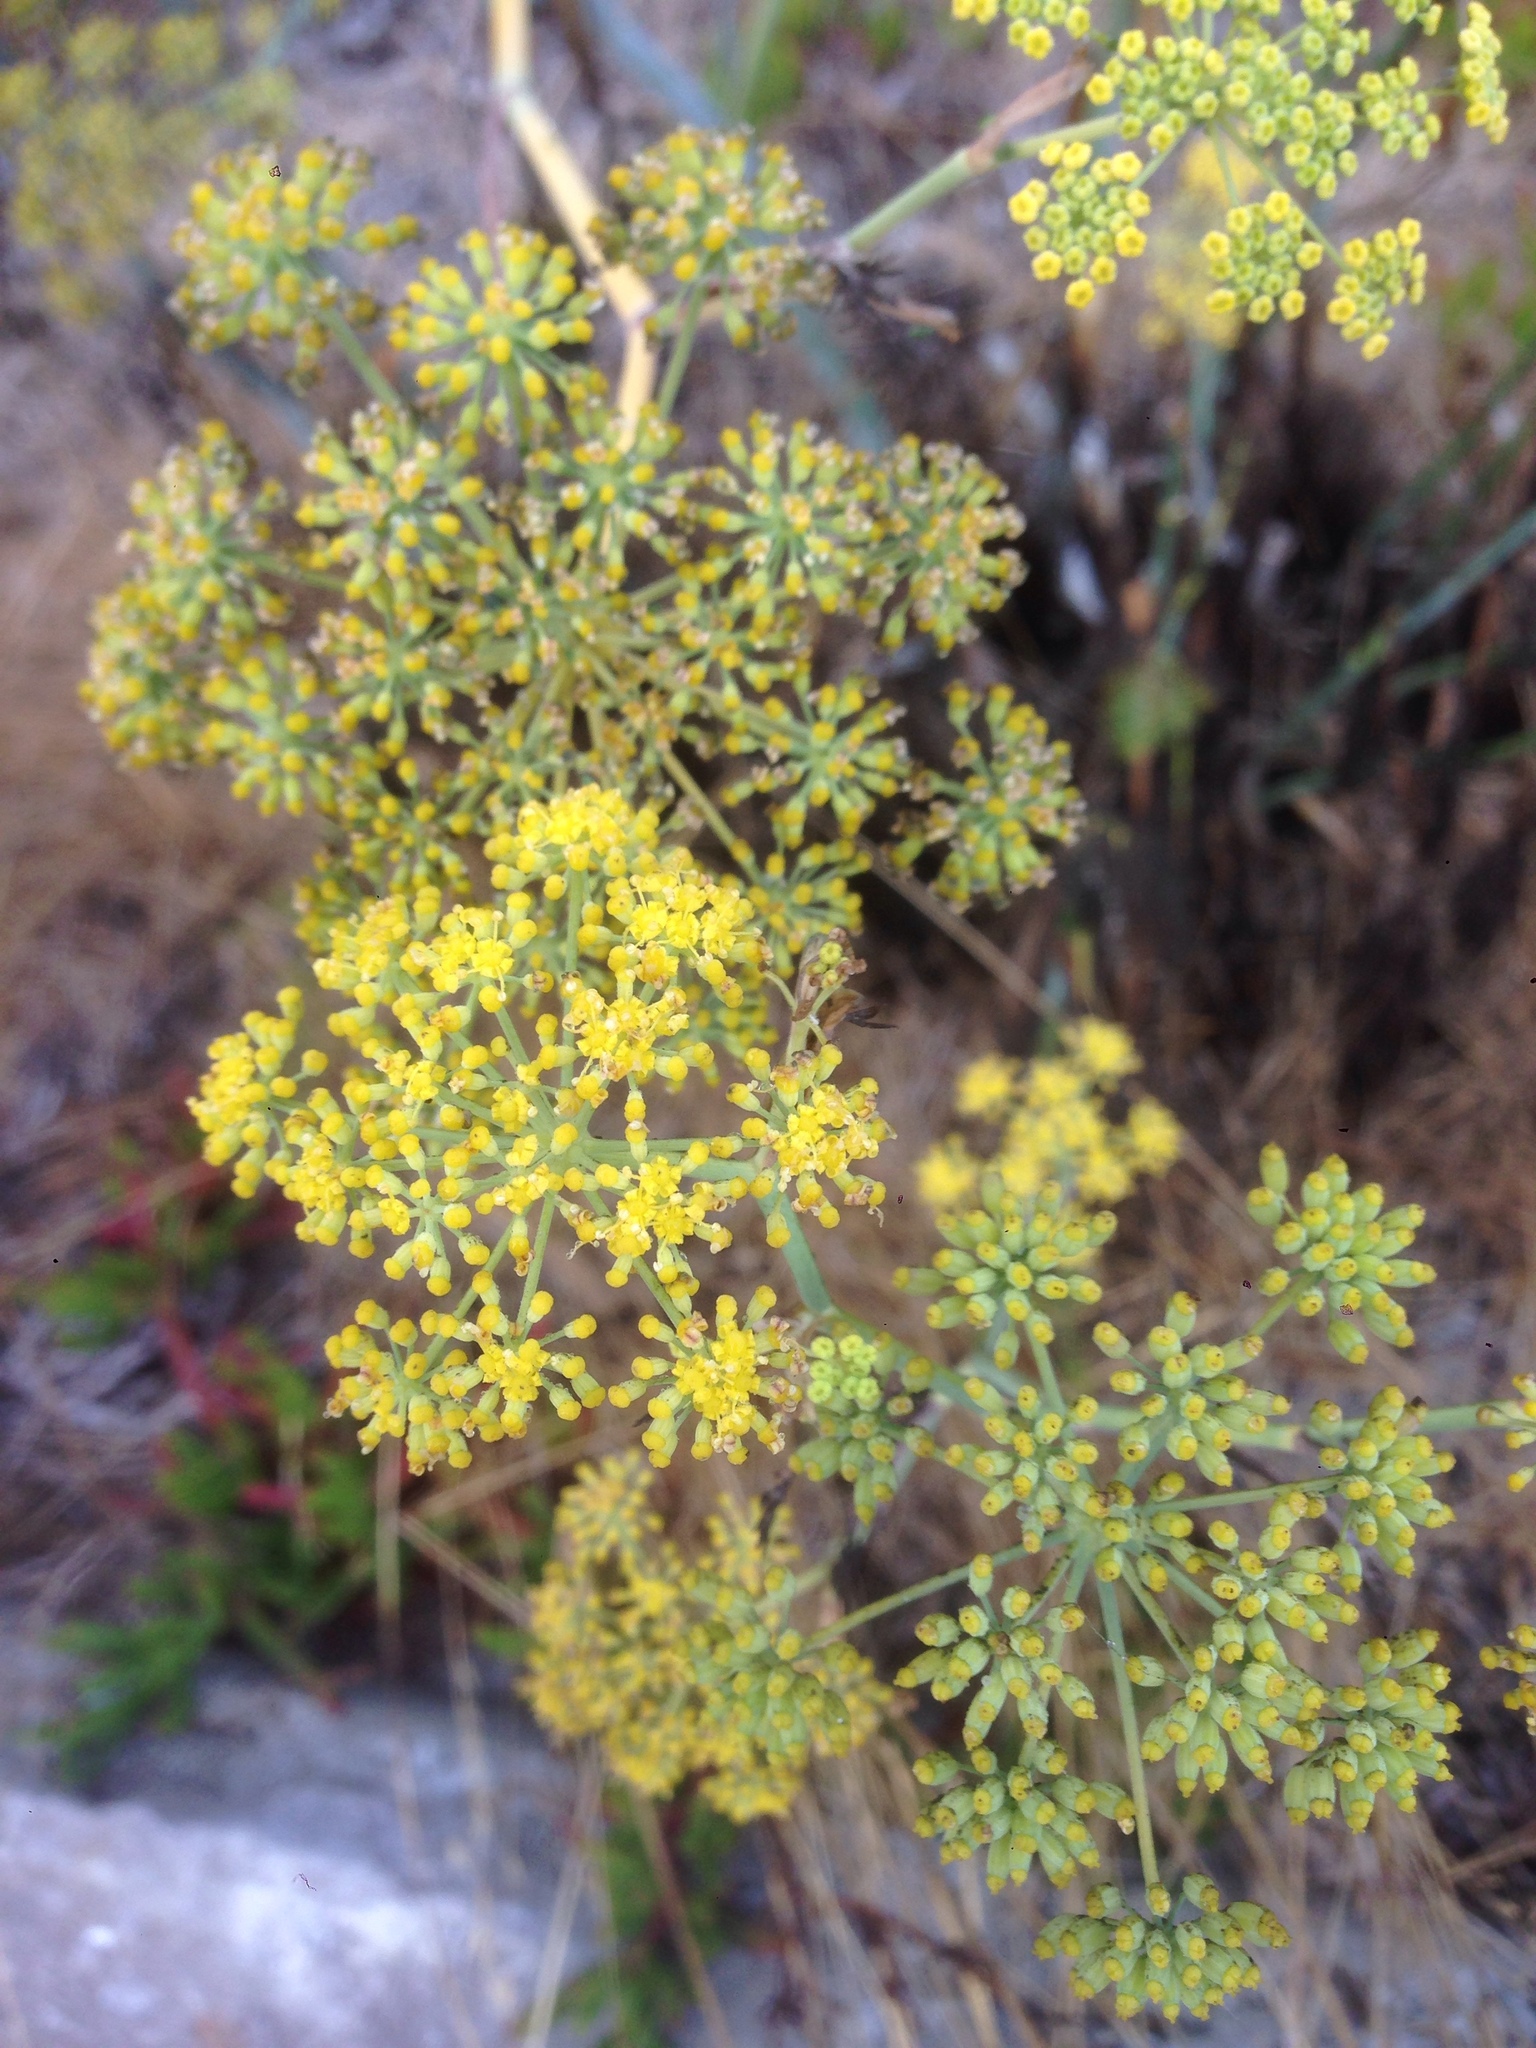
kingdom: Plantae
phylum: Tracheophyta
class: Magnoliopsida
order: Apiales
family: Apiaceae
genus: Foeniculum
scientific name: Foeniculum vulgare
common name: Fennel
